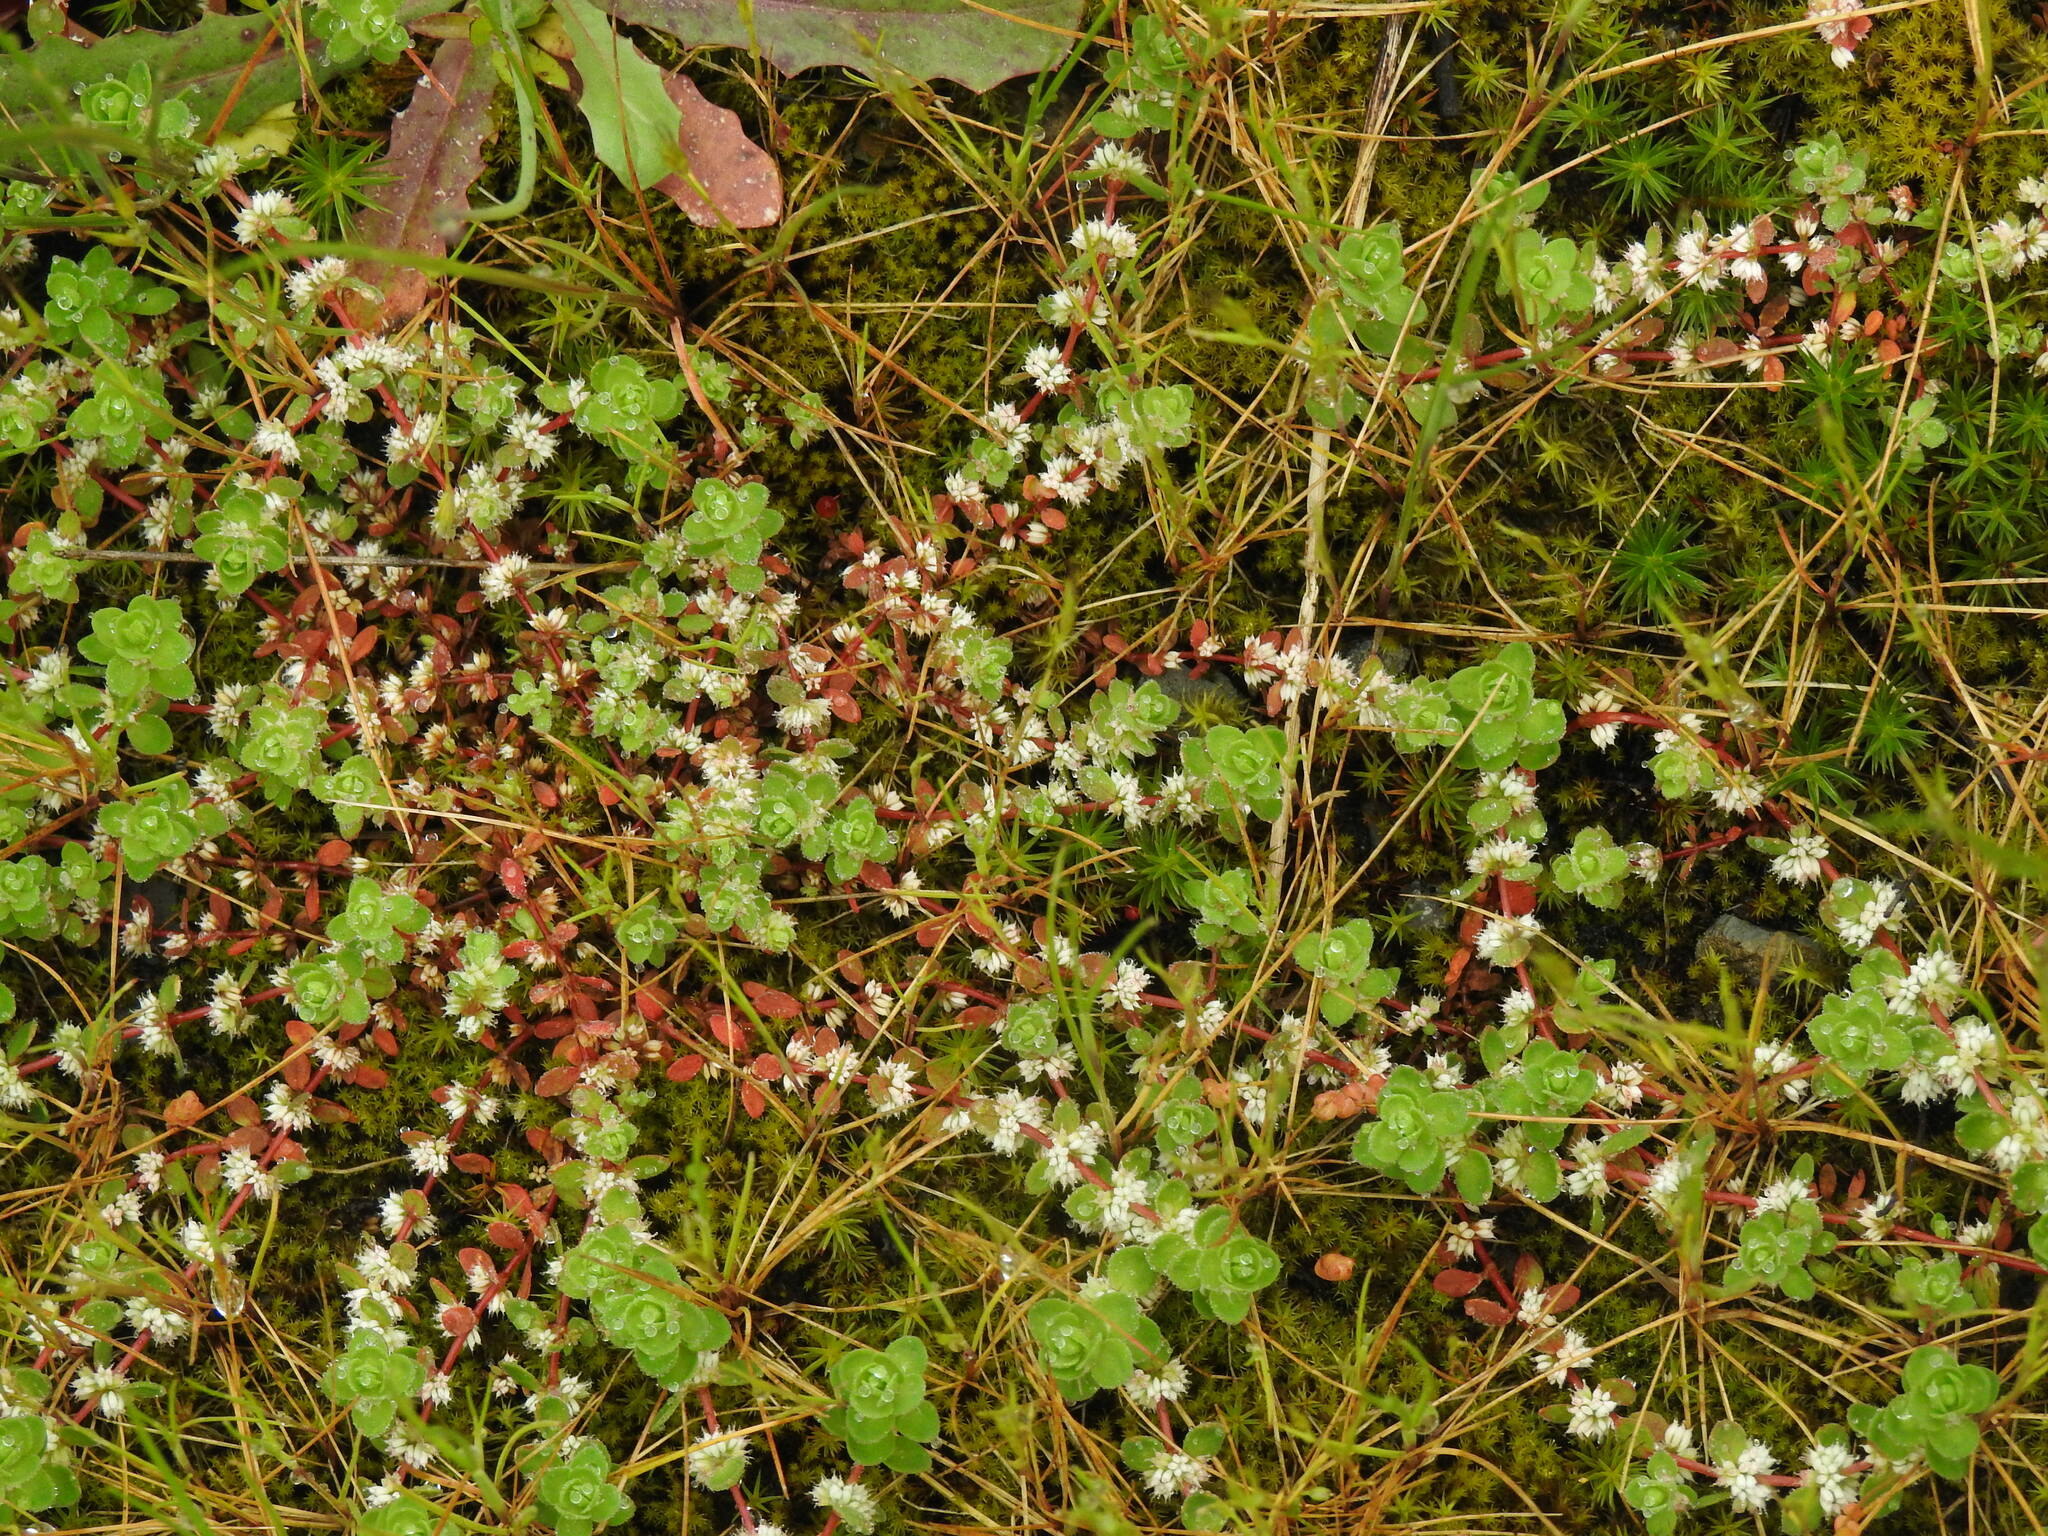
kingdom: Plantae
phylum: Tracheophyta
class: Magnoliopsida
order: Caryophyllales
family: Caryophyllaceae
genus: Illecebrum
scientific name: Illecebrum verticillatum
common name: Coral necklace
